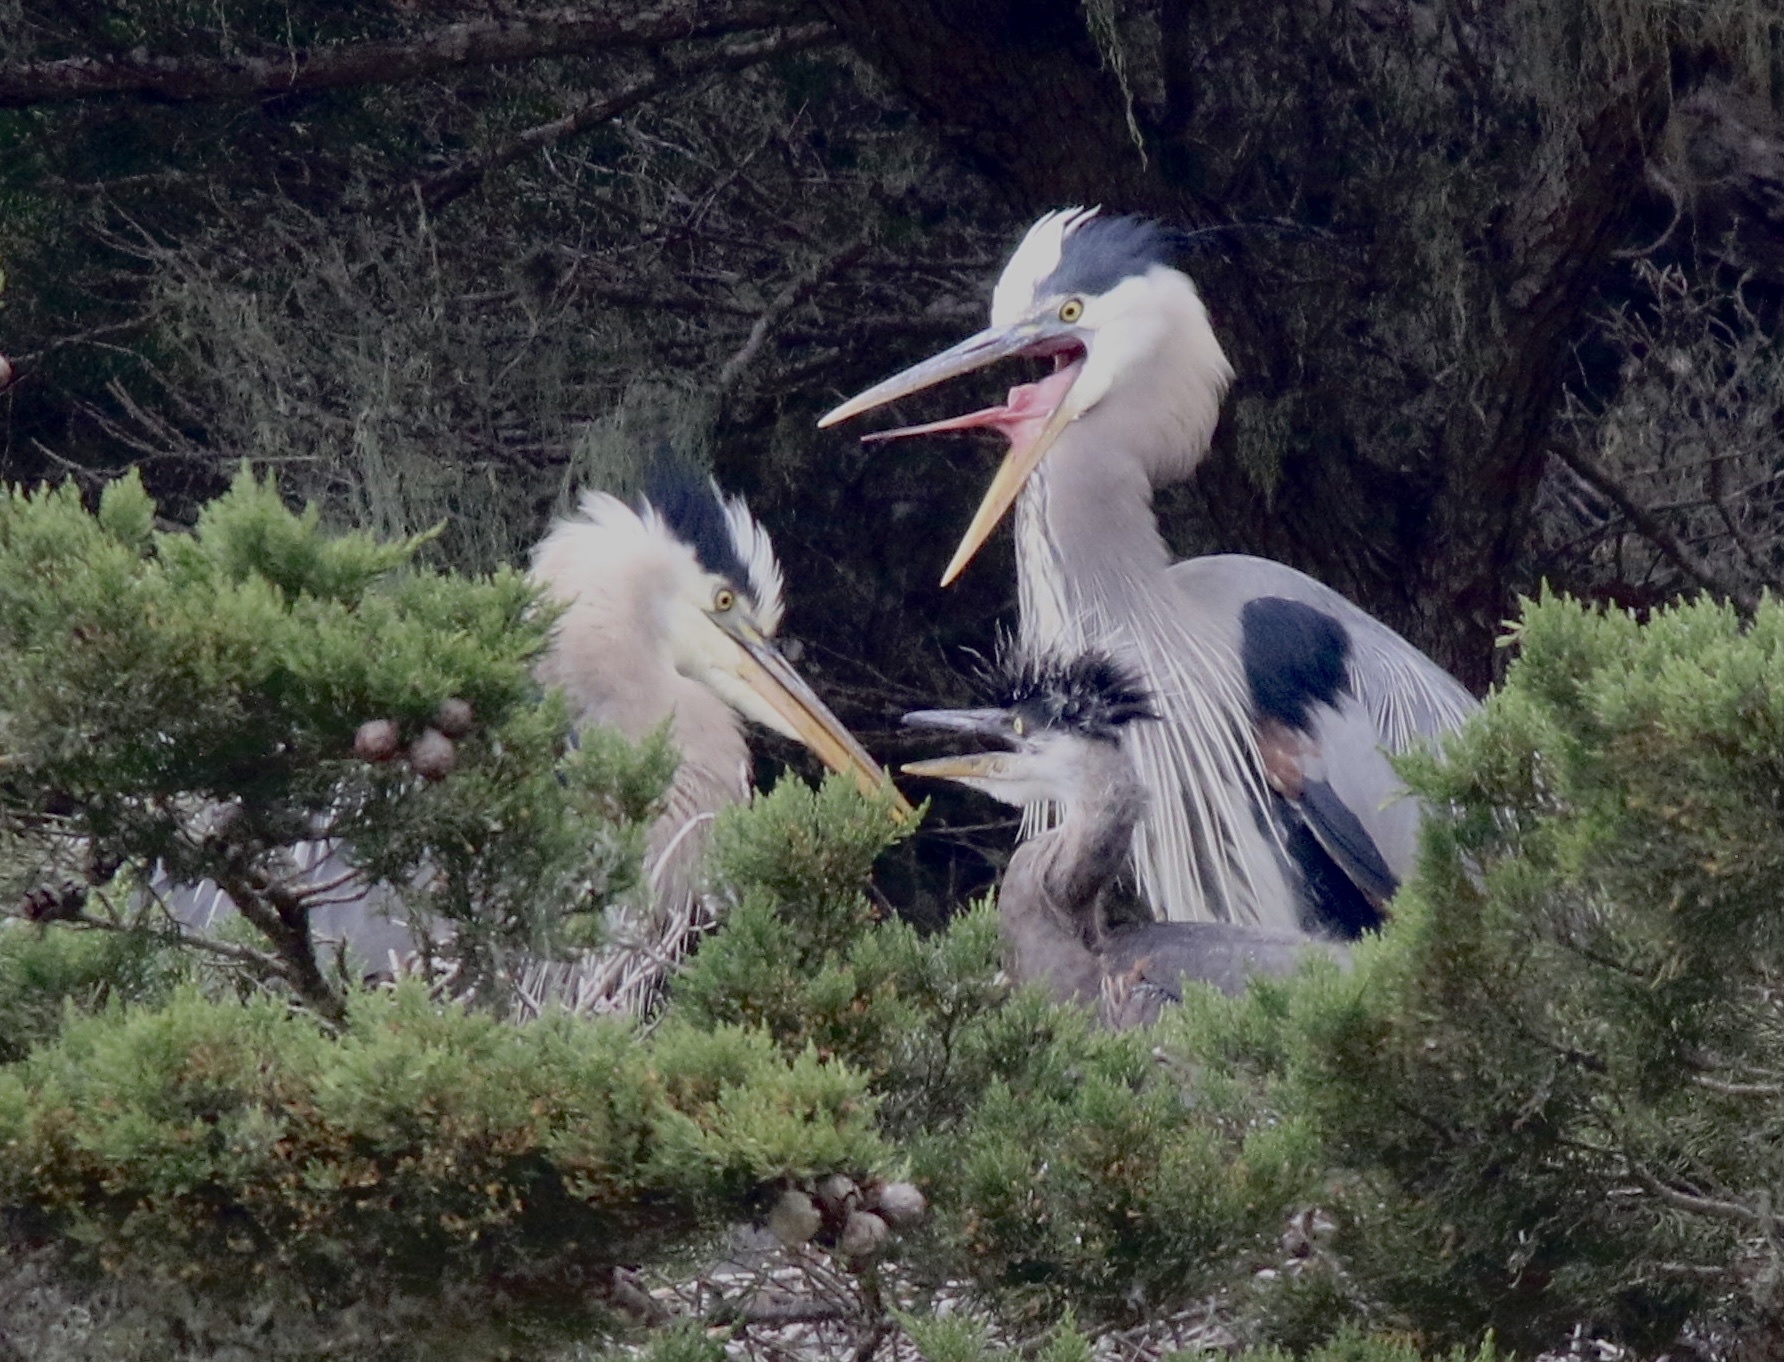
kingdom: Animalia
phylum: Chordata
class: Aves
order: Pelecaniformes
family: Ardeidae
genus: Ardea
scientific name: Ardea herodias
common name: Great blue heron
